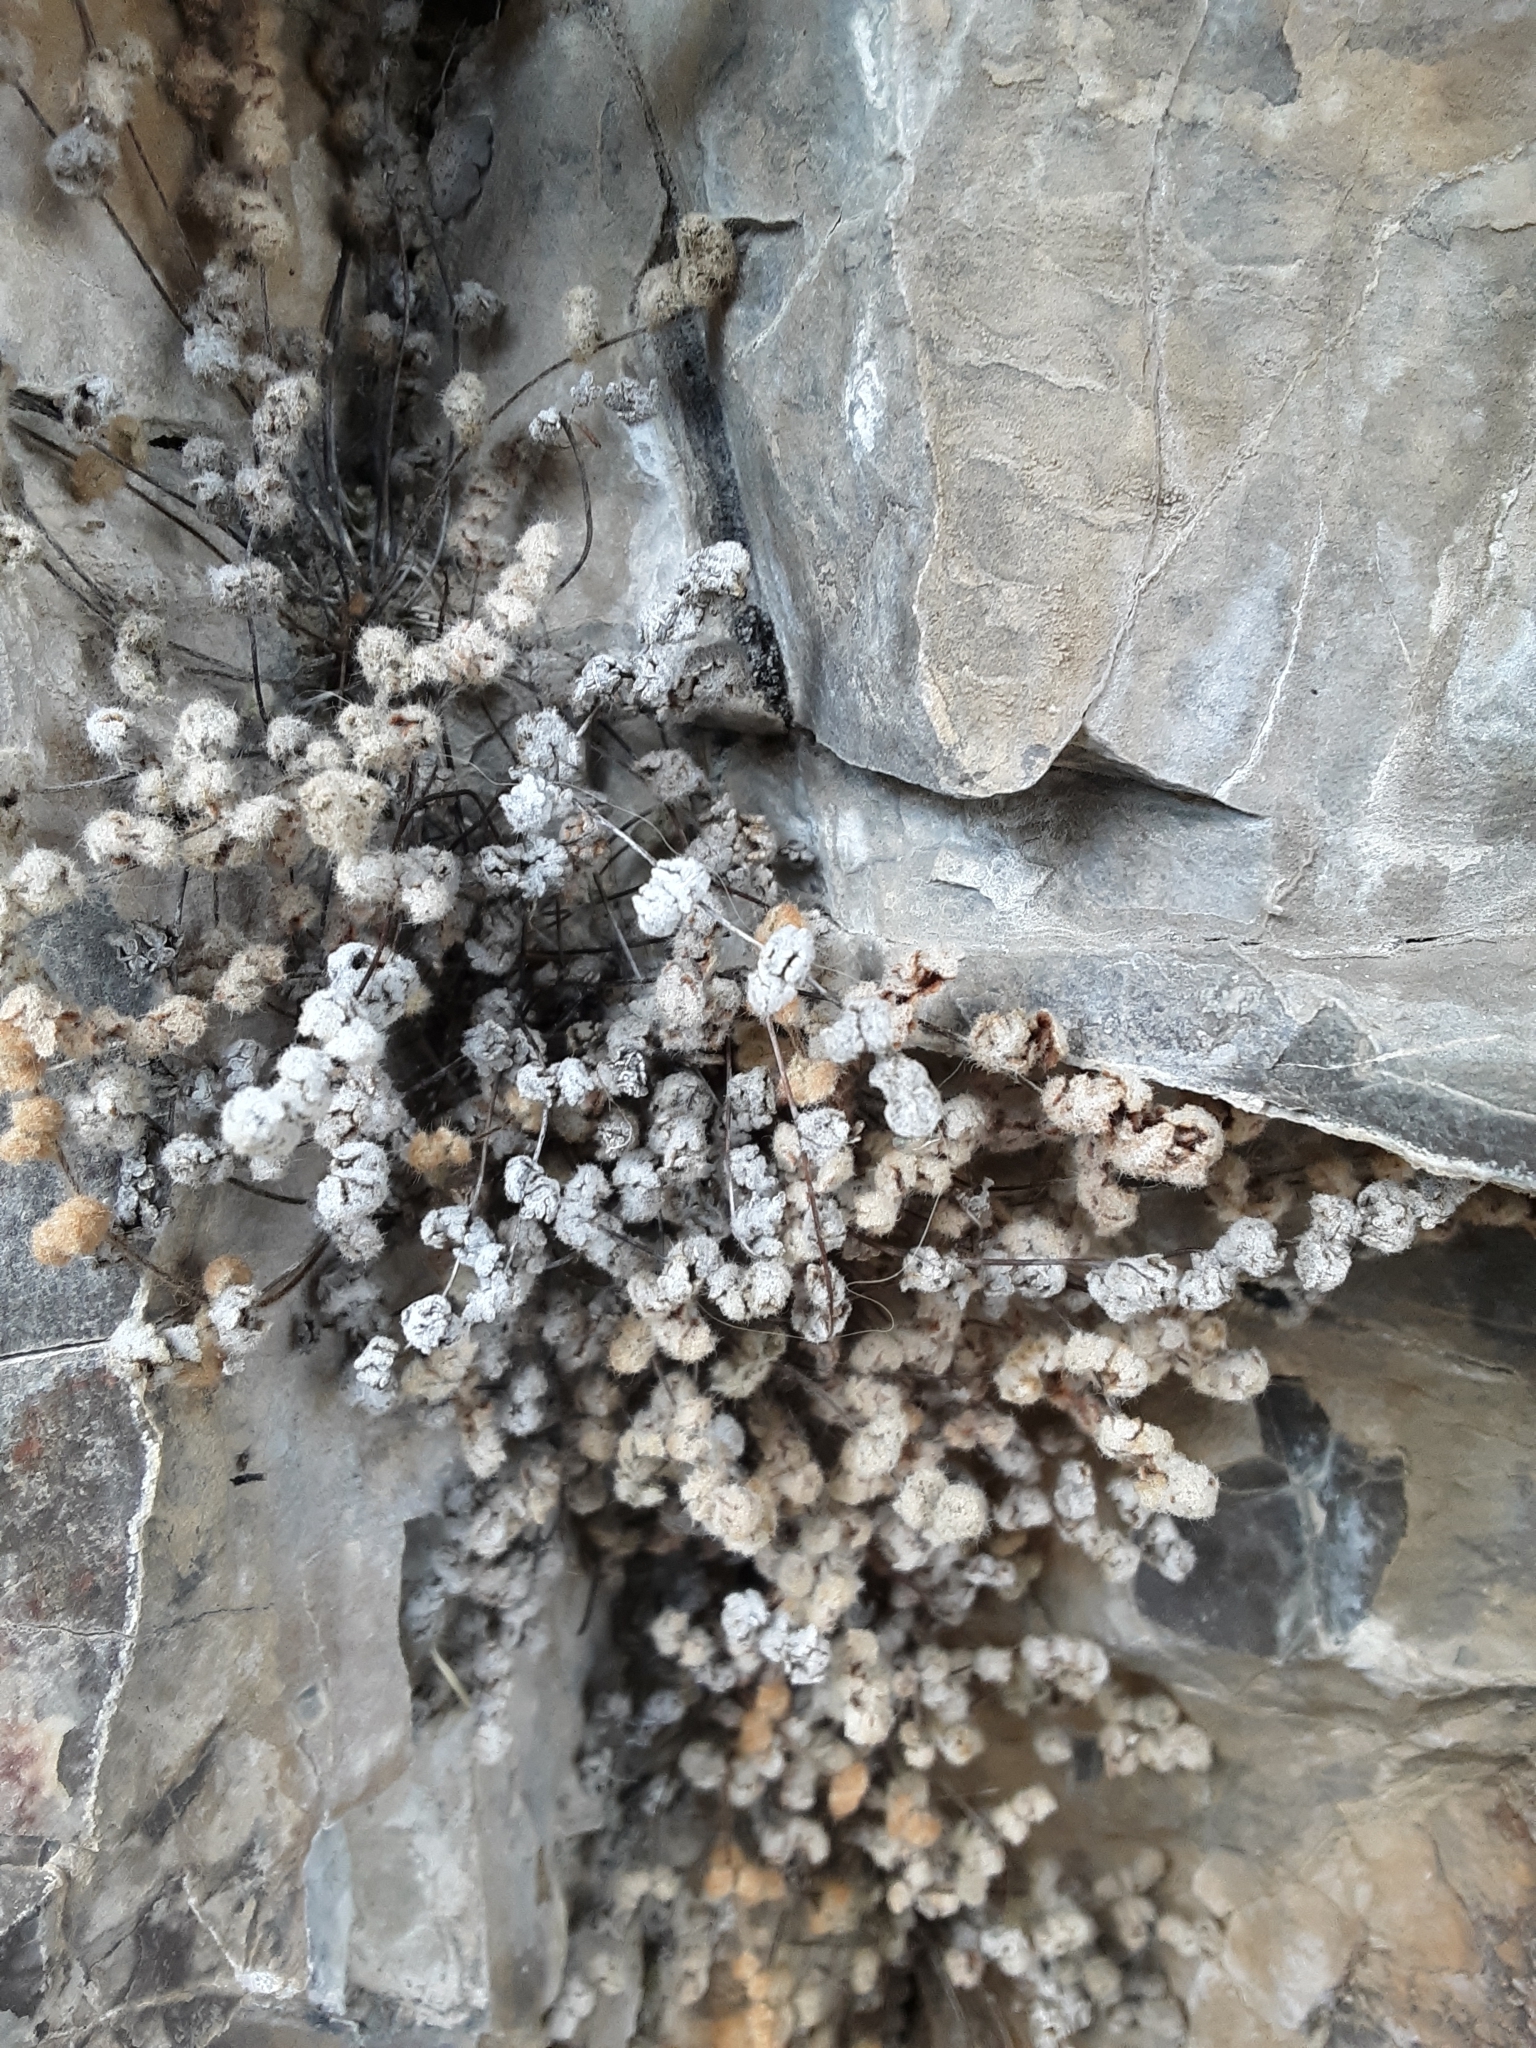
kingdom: Plantae
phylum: Tracheophyta
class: Polypodiopsida
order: Polypodiales
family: Pteridaceae
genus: Myriopteris
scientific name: Myriopteris gracilis
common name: Fee's lip fern
